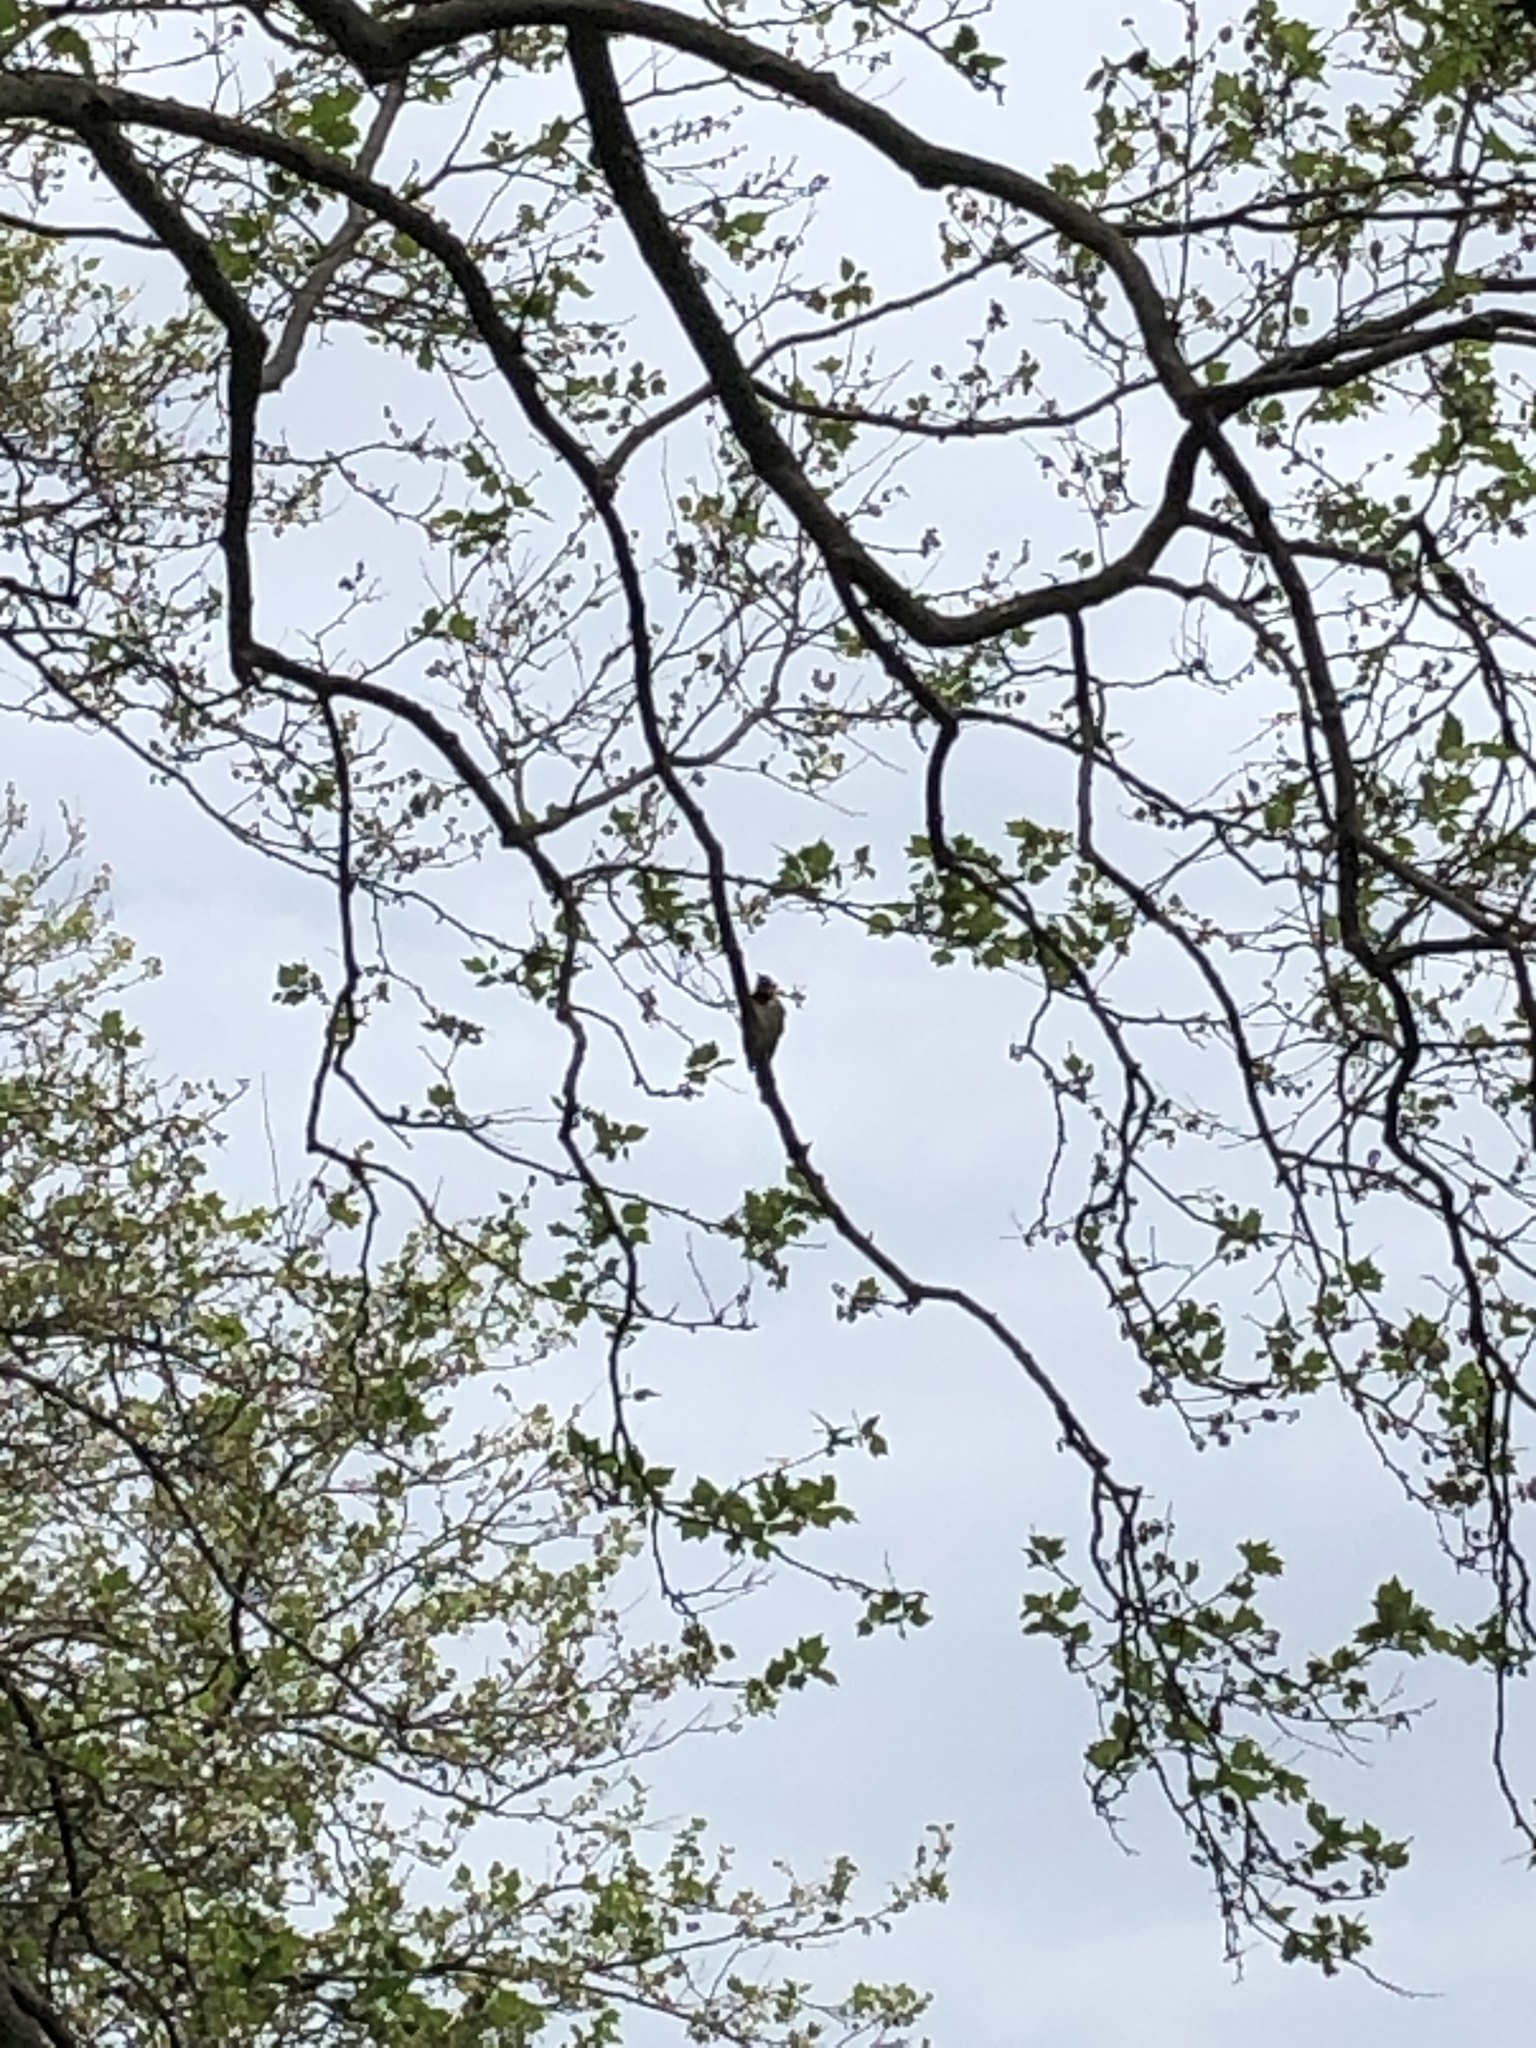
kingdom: Animalia
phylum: Chordata
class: Aves
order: Piciformes
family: Picidae
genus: Colaptes
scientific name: Colaptes auratus
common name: Northern flicker
